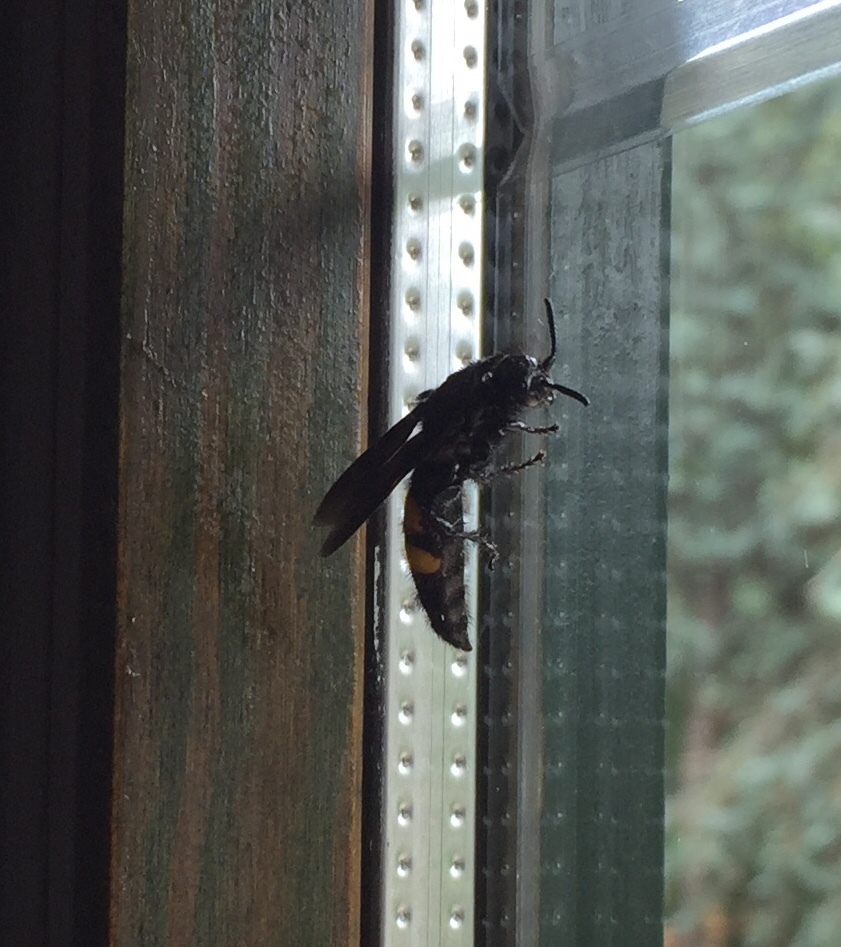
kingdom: Animalia
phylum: Arthropoda
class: Insecta
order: Hymenoptera
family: Scoliidae
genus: Scolia
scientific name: Scolia hirta
